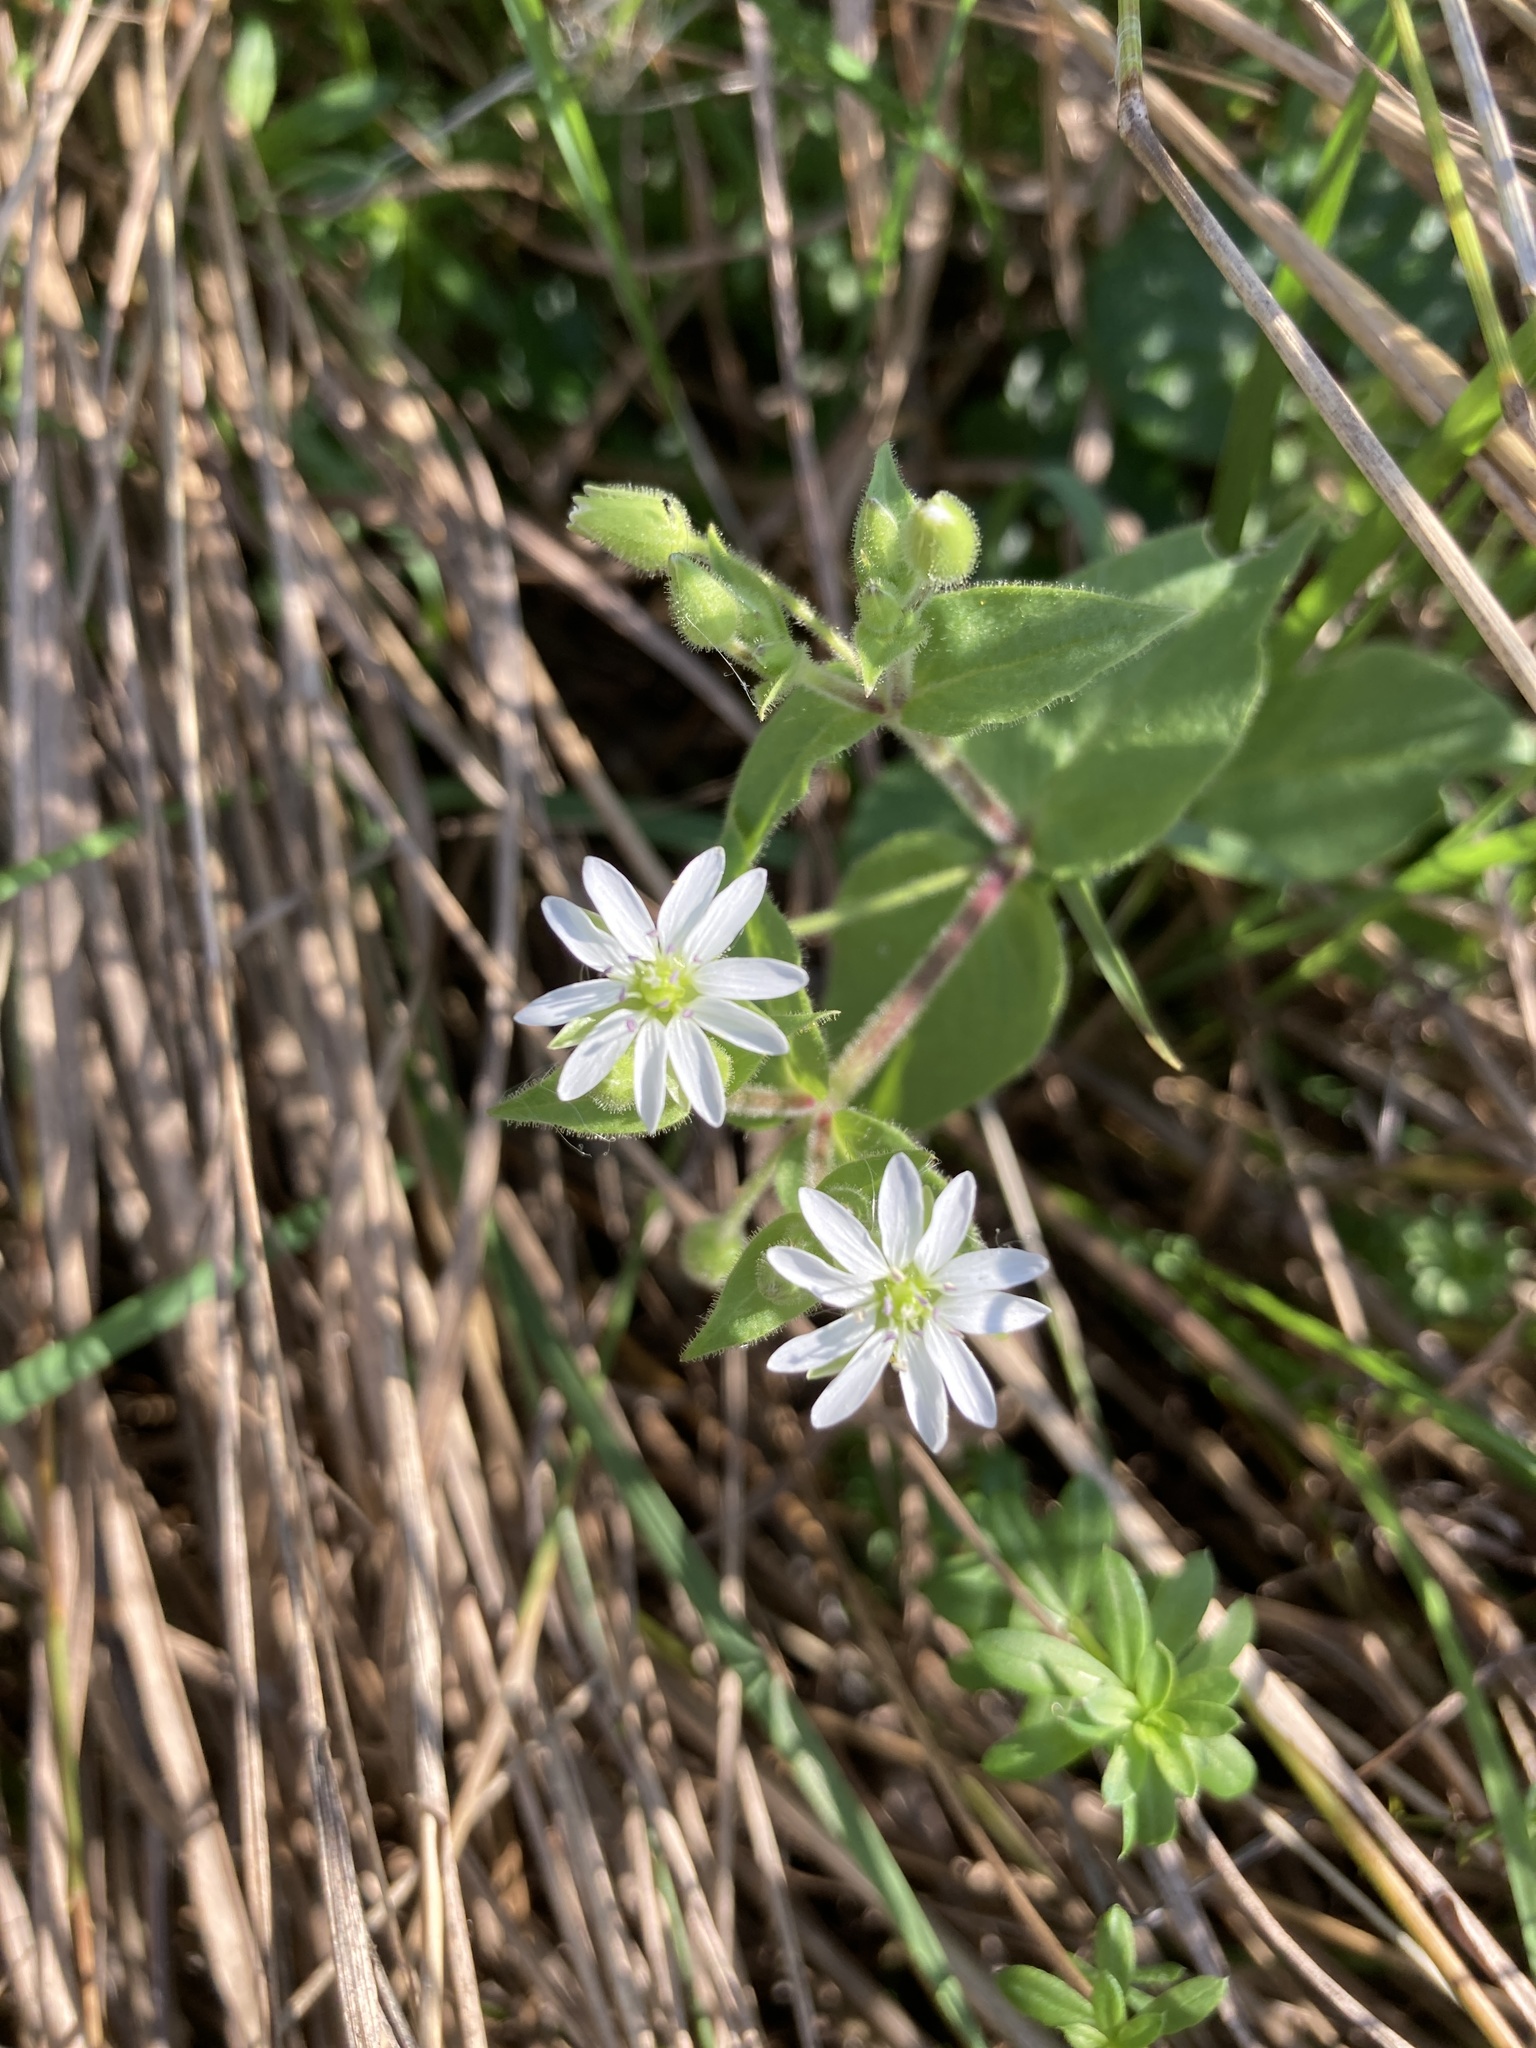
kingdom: Plantae
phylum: Tracheophyta
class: Magnoliopsida
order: Caryophyllales
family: Caryophyllaceae
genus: Stellaria
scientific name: Stellaria aquatica
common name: Water chickweed
